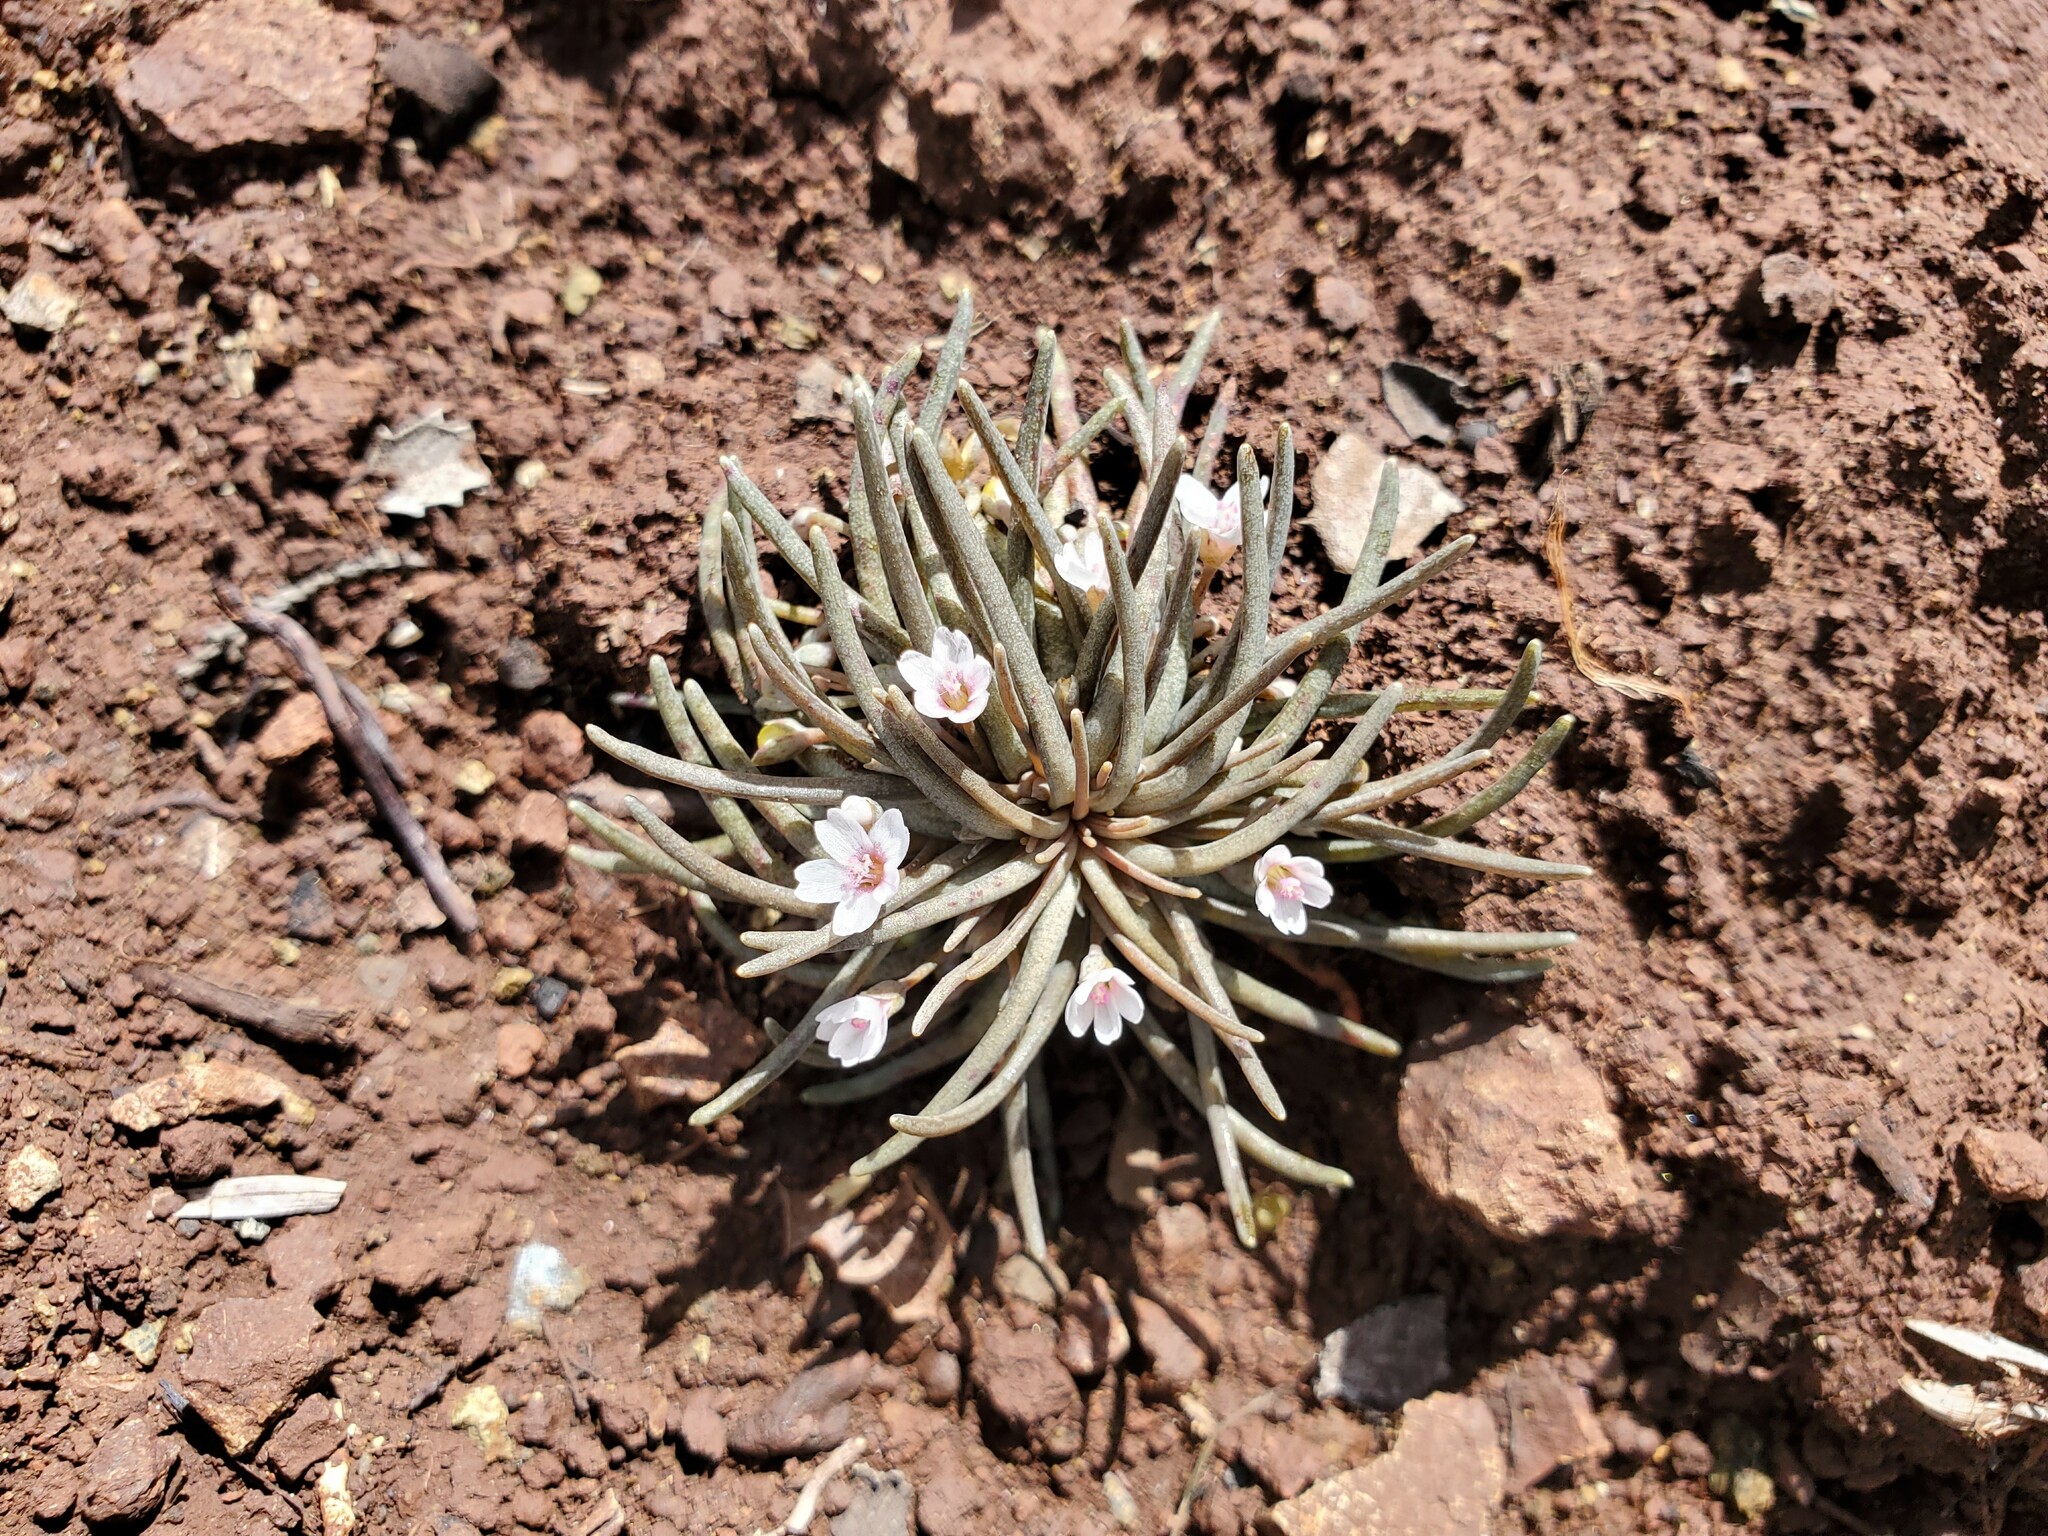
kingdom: Plantae
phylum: Tracheophyta
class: Magnoliopsida
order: Caryophyllales
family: Montiaceae
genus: Claytonia
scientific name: Claytonia exigua
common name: Pale spring beauty
